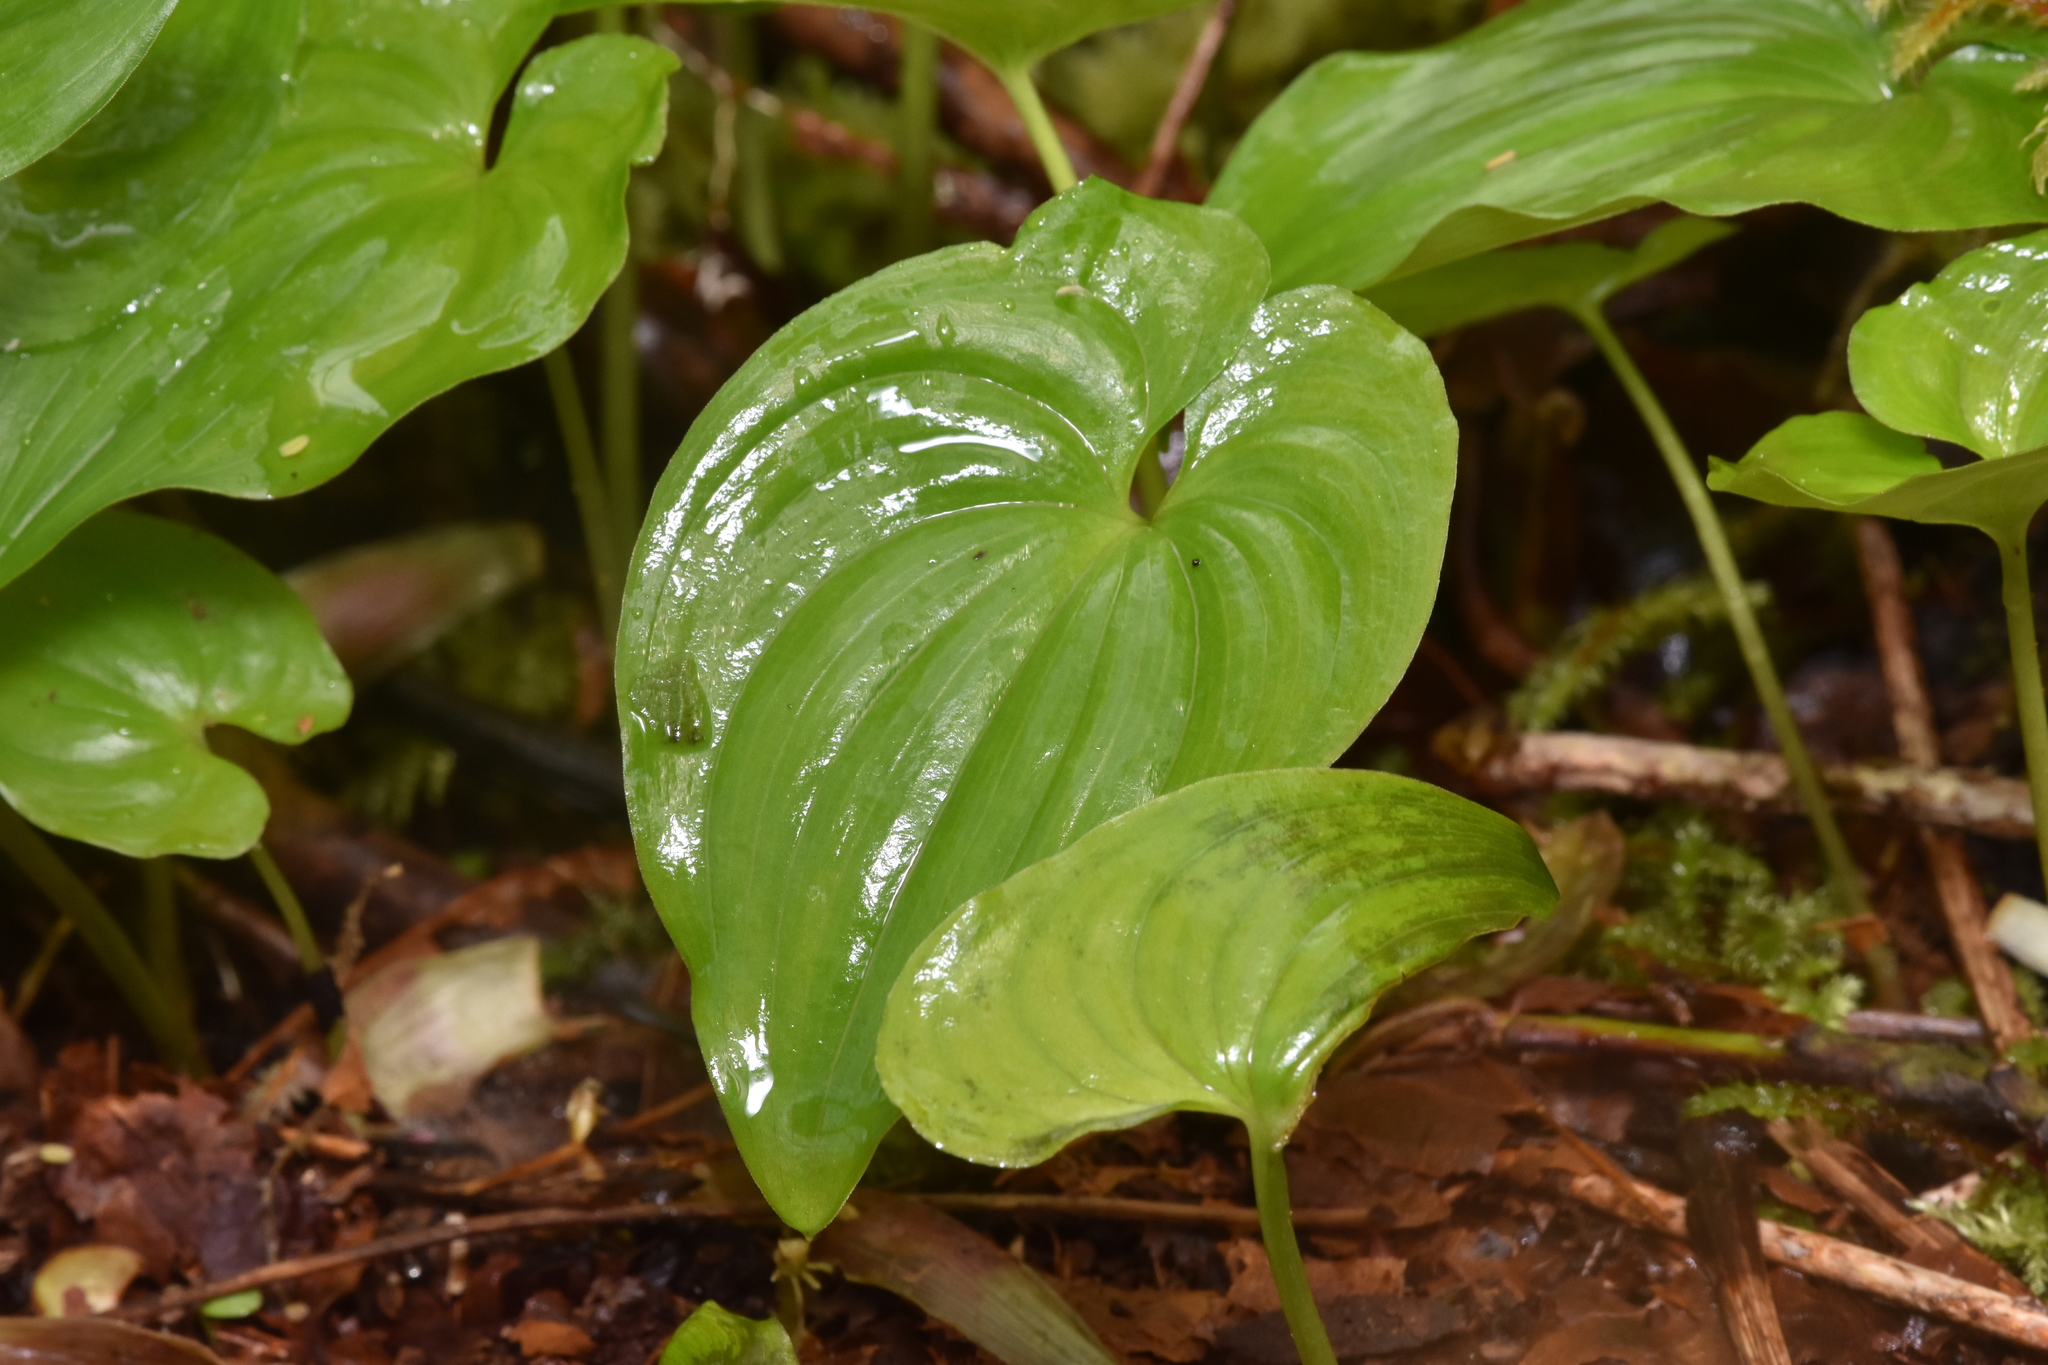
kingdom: Plantae
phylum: Tracheophyta
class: Liliopsida
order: Asparagales
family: Asparagaceae
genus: Maianthemum
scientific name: Maianthemum dilatatum
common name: False lily-of-the-valley
